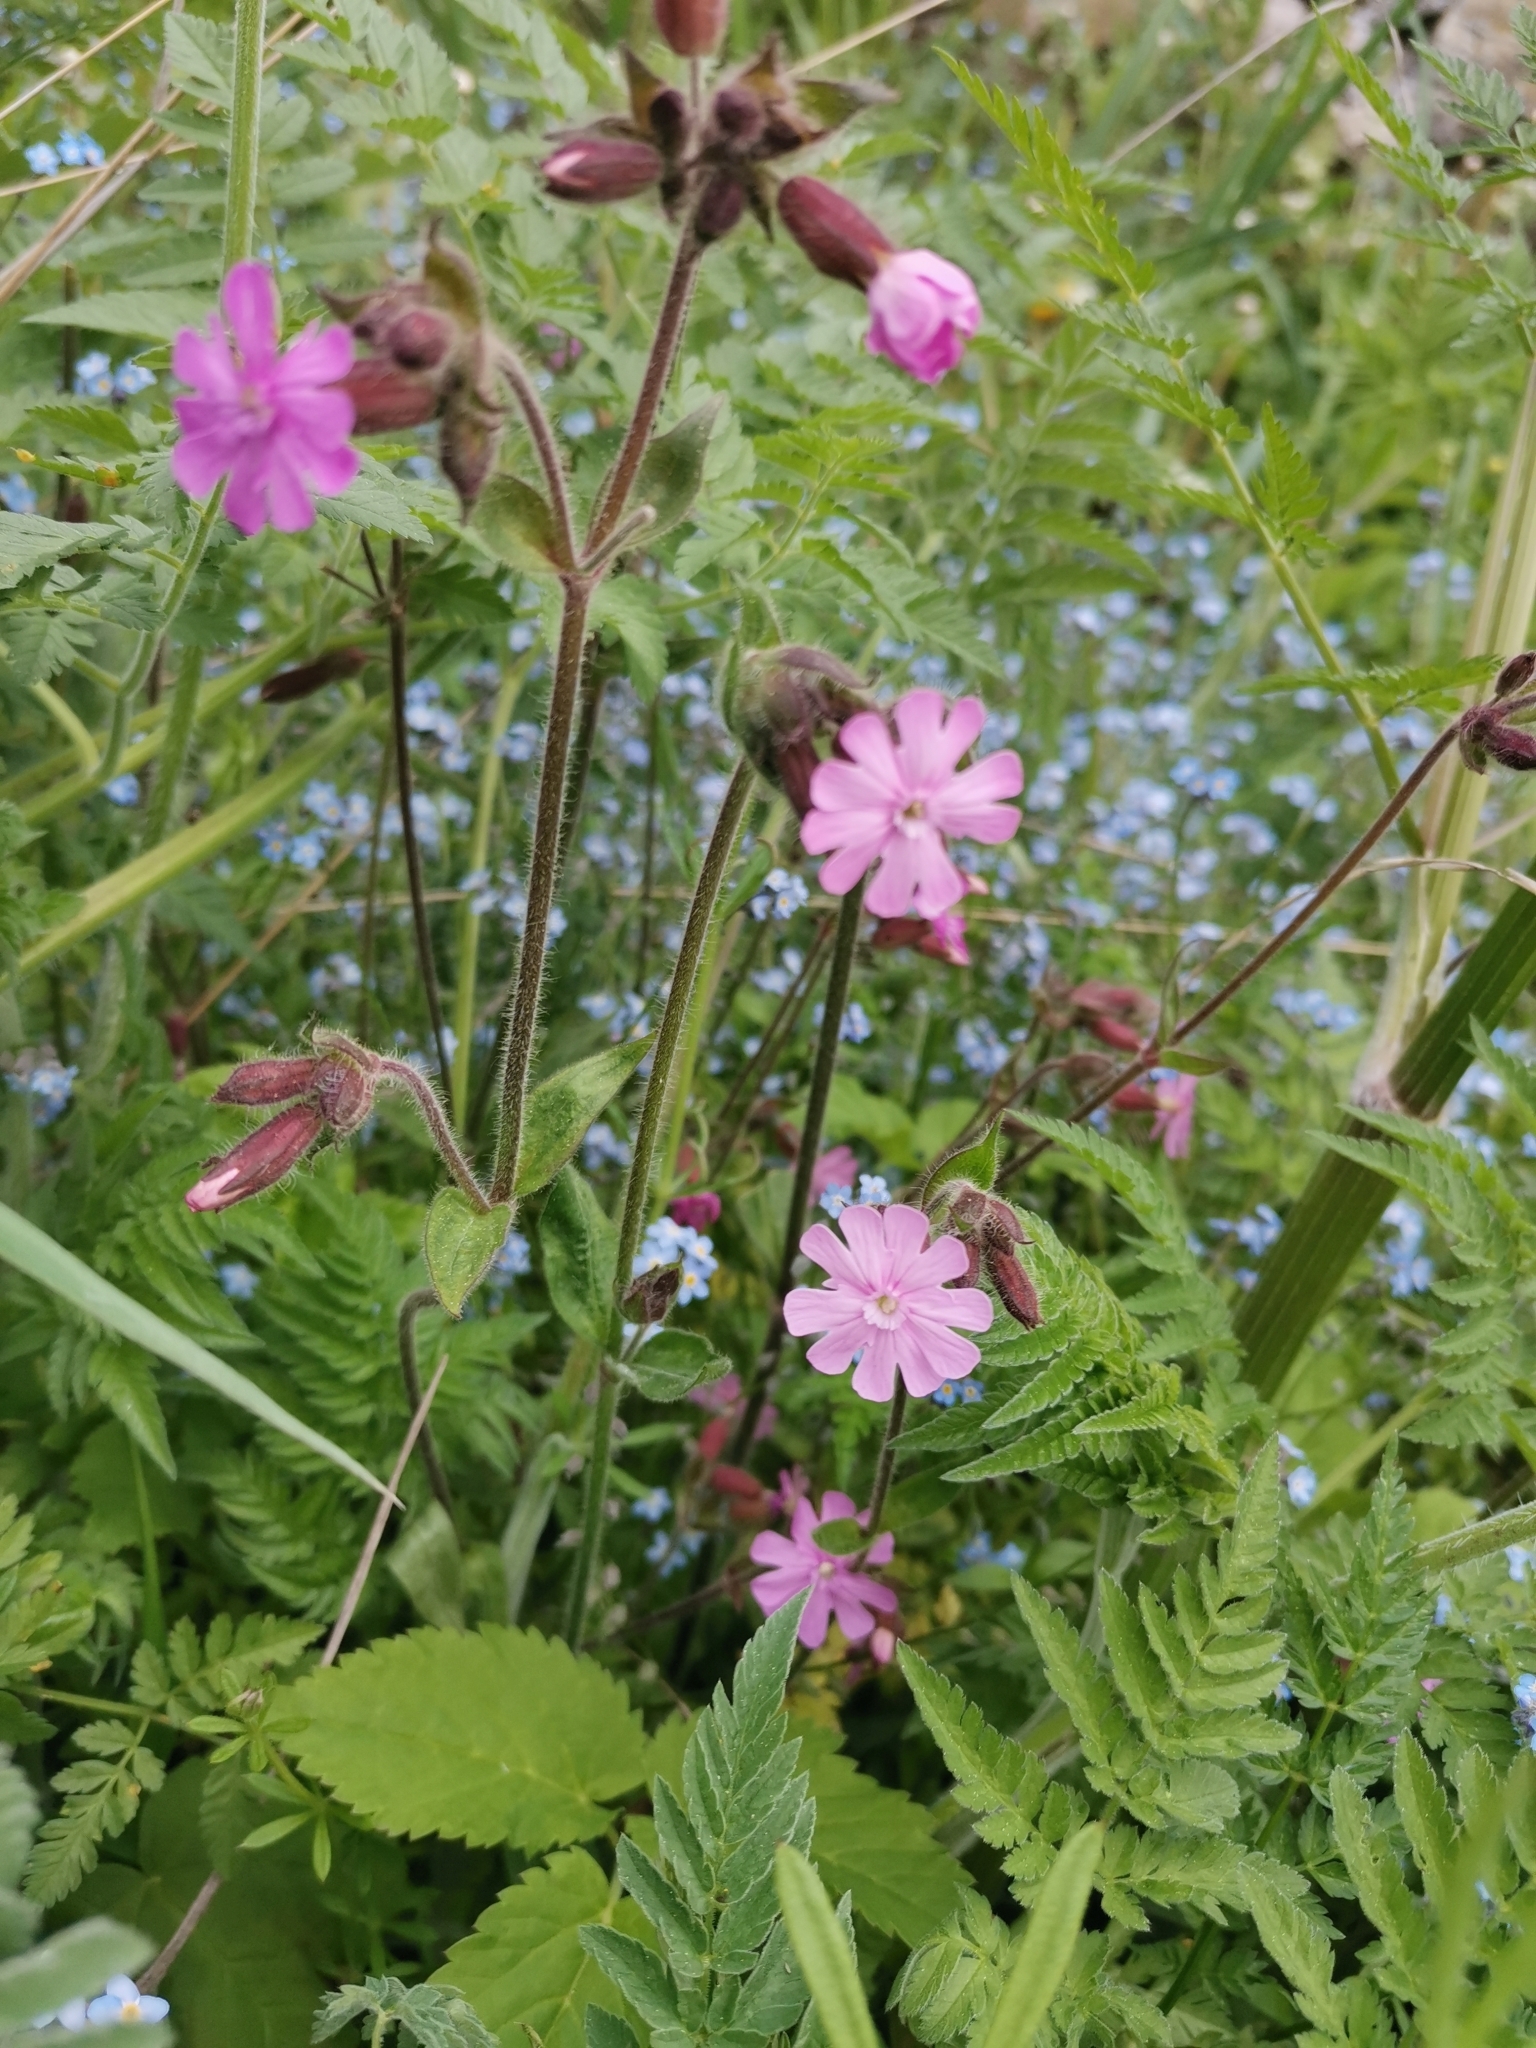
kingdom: Plantae
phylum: Tracheophyta
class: Magnoliopsida
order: Caryophyllales
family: Caryophyllaceae
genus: Silene
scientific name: Silene dioica
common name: Red campion
